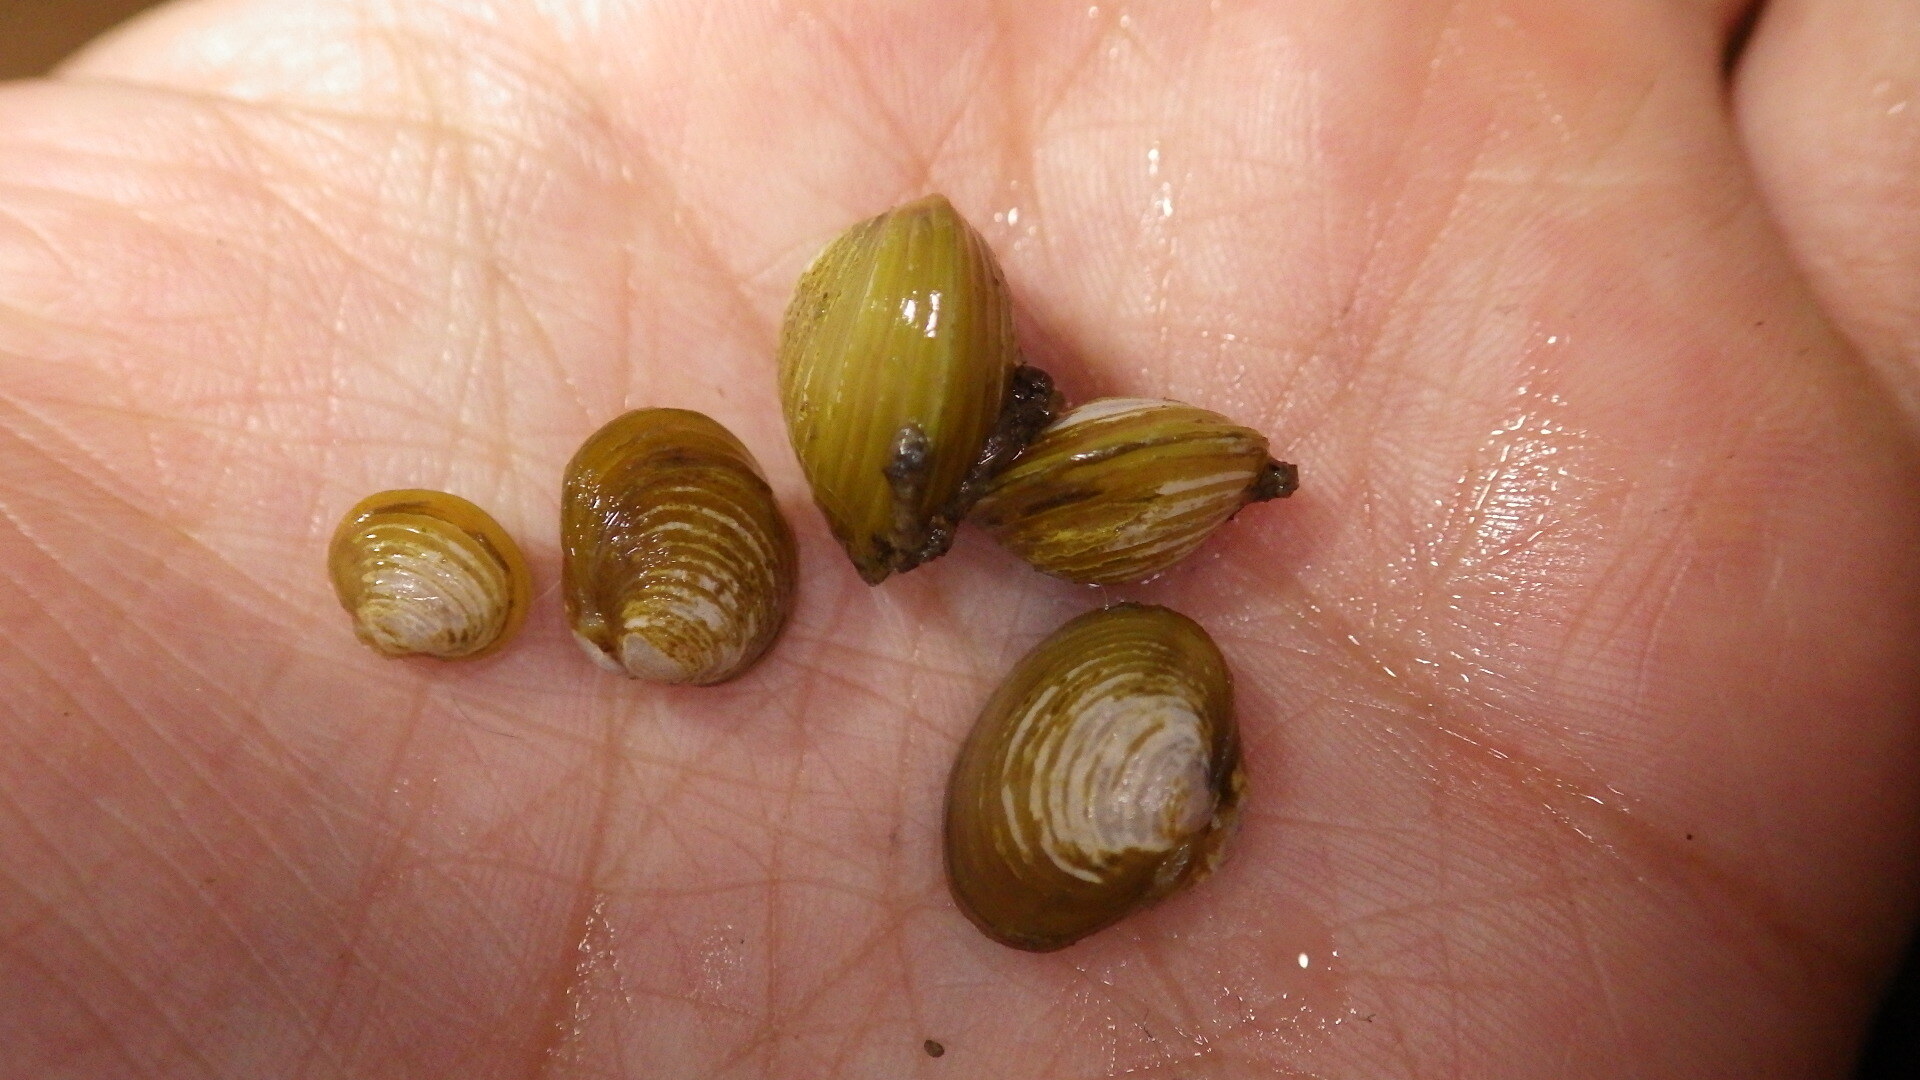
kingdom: Animalia
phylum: Mollusca
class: Bivalvia
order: Venerida
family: Cyrenidae
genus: Corbicula
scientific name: Corbicula fluminea
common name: Asian clam
